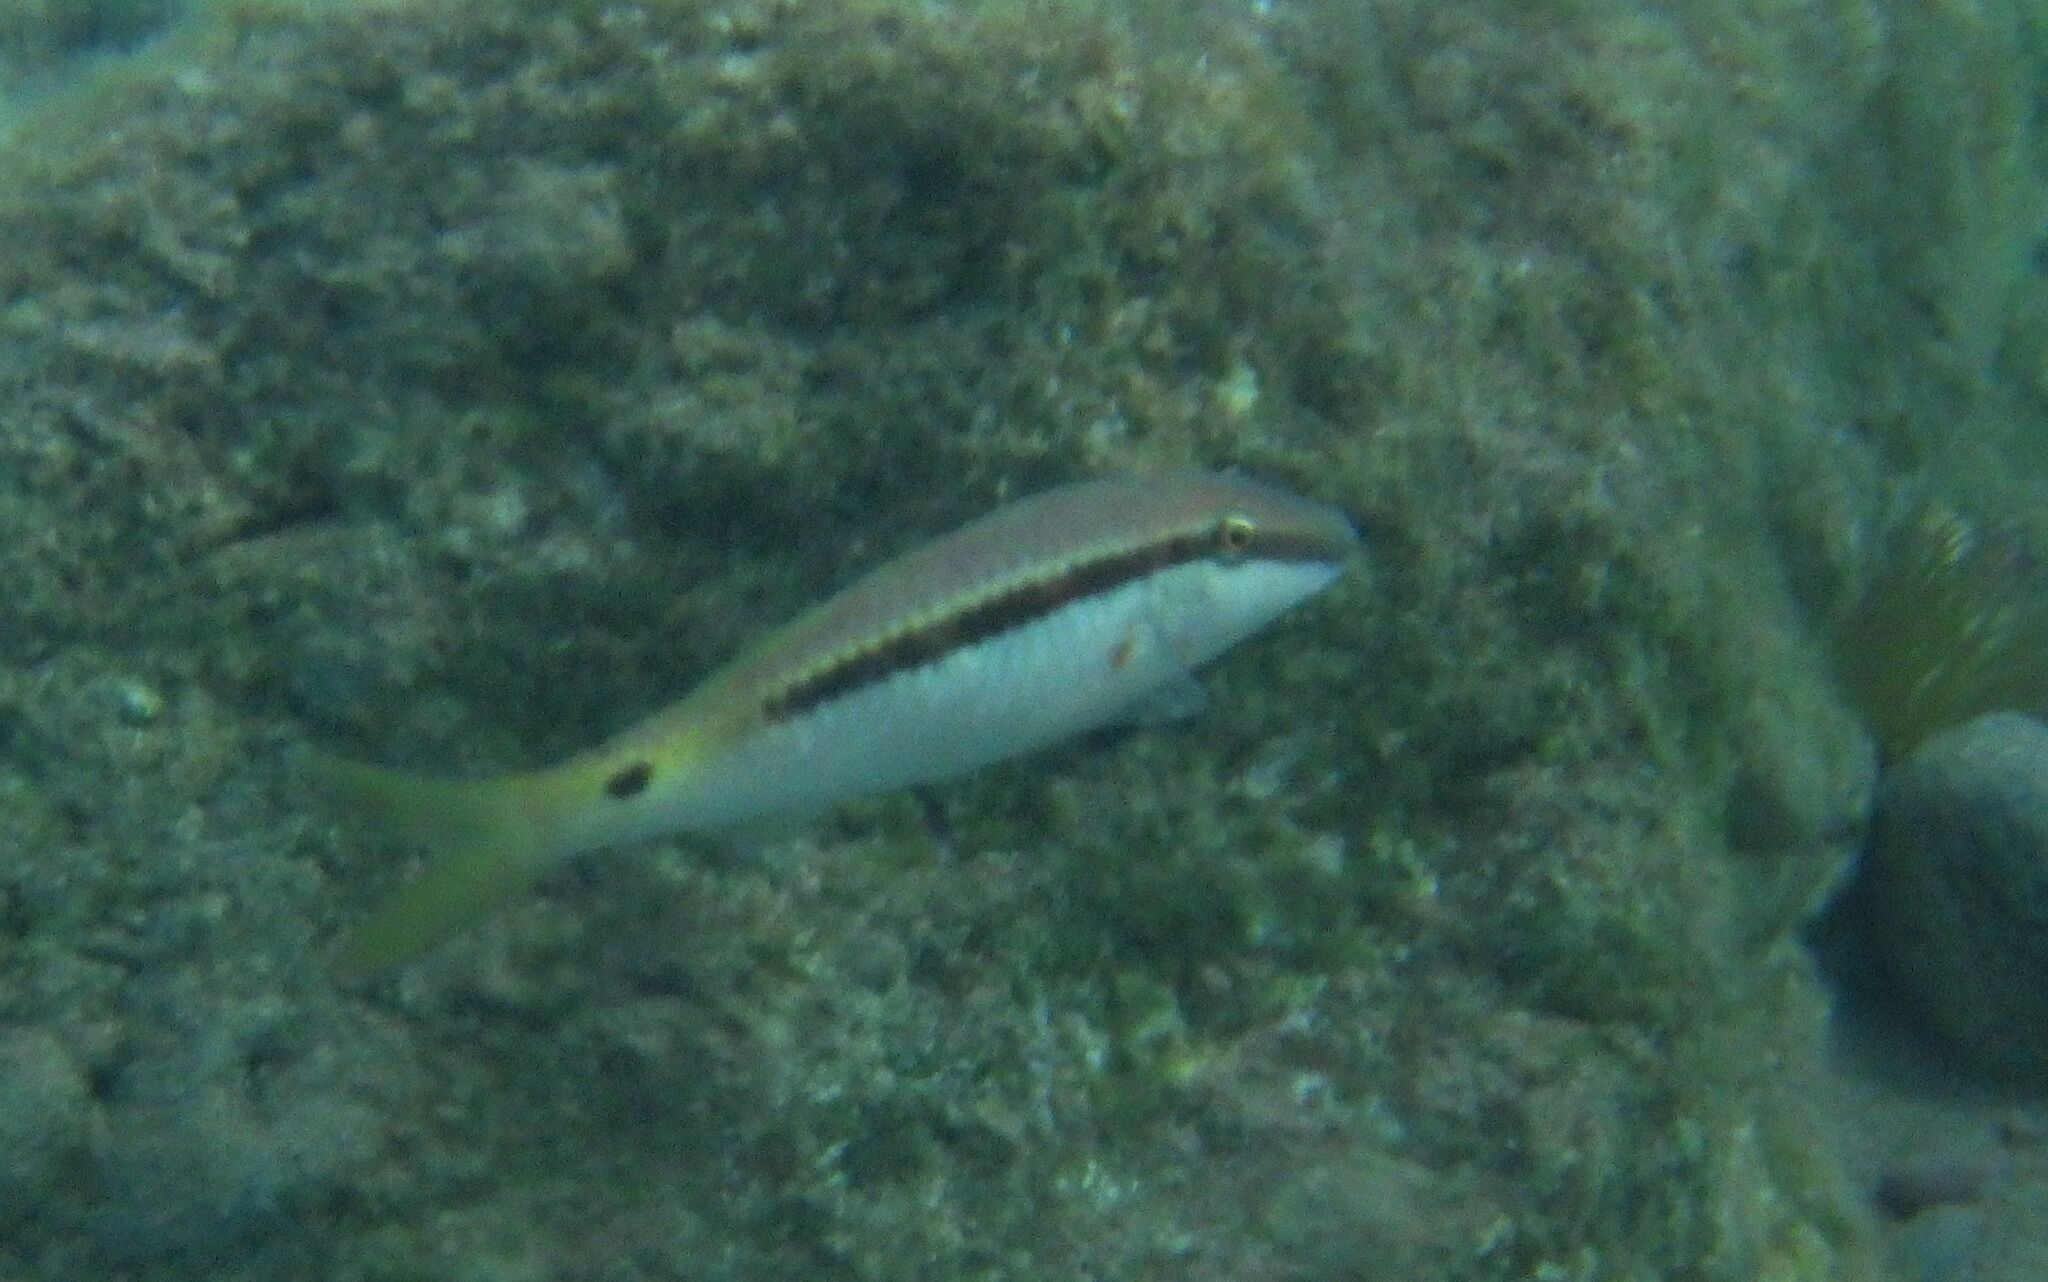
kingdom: Animalia
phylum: Chordata
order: Perciformes
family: Mullidae
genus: Parupeneus
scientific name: Parupeneus forsskali
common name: Red sea goatfish
